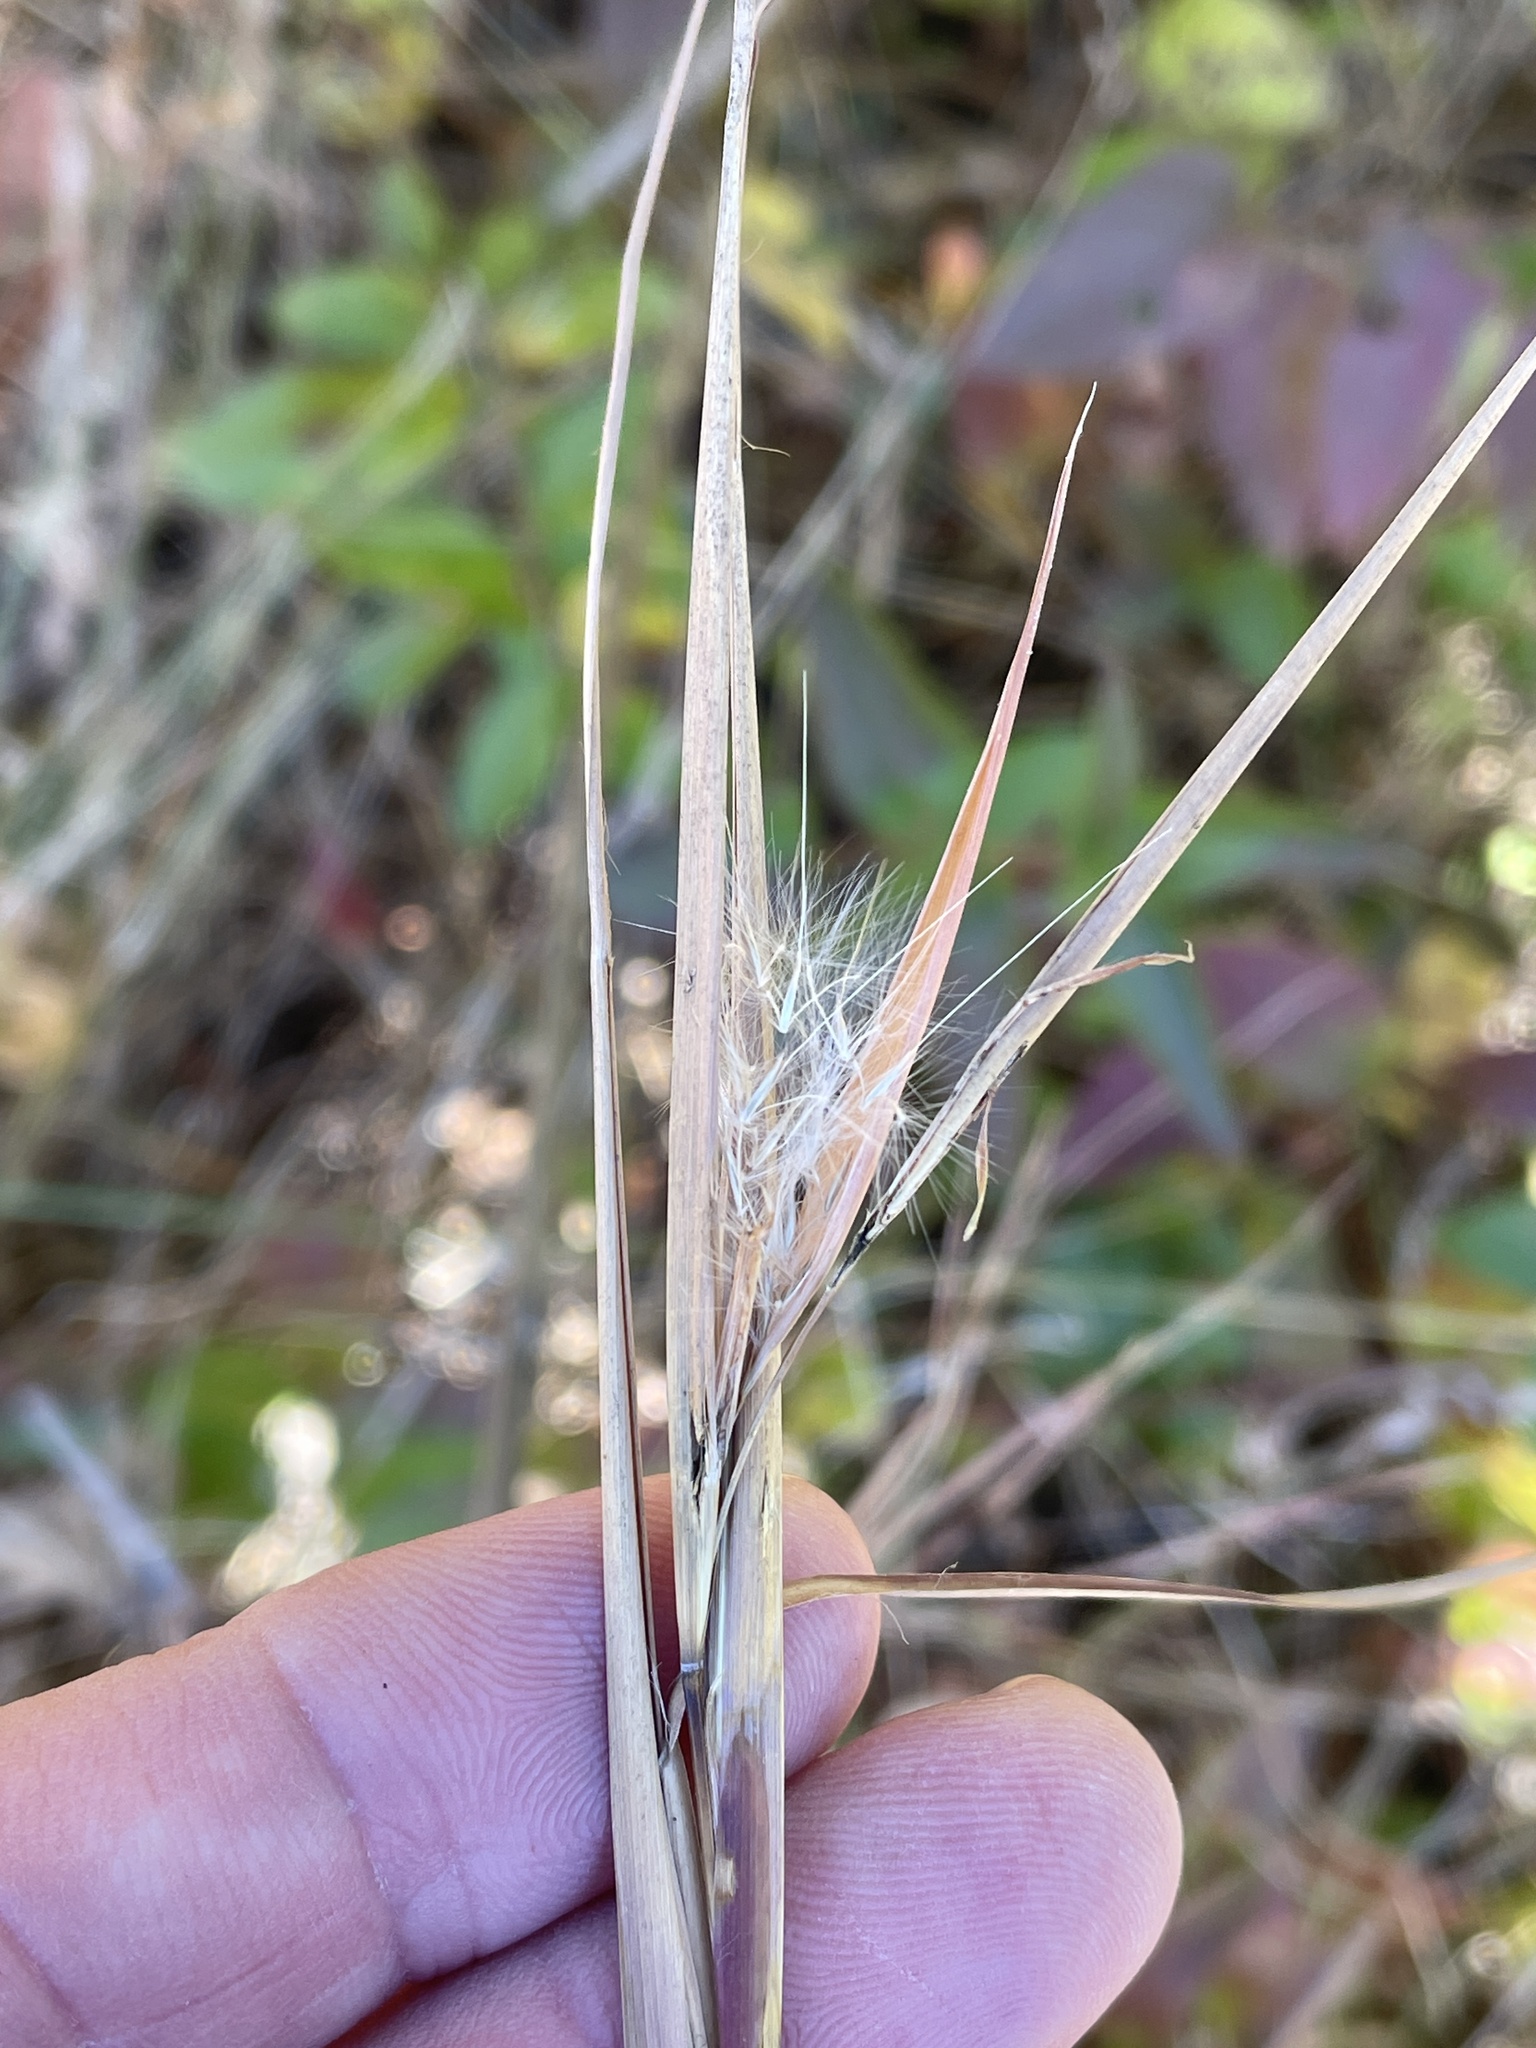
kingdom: Plantae
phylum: Tracheophyta
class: Liliopsida
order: Poales
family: Poaceae
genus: Andropogon
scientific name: Andropogon gyrans
